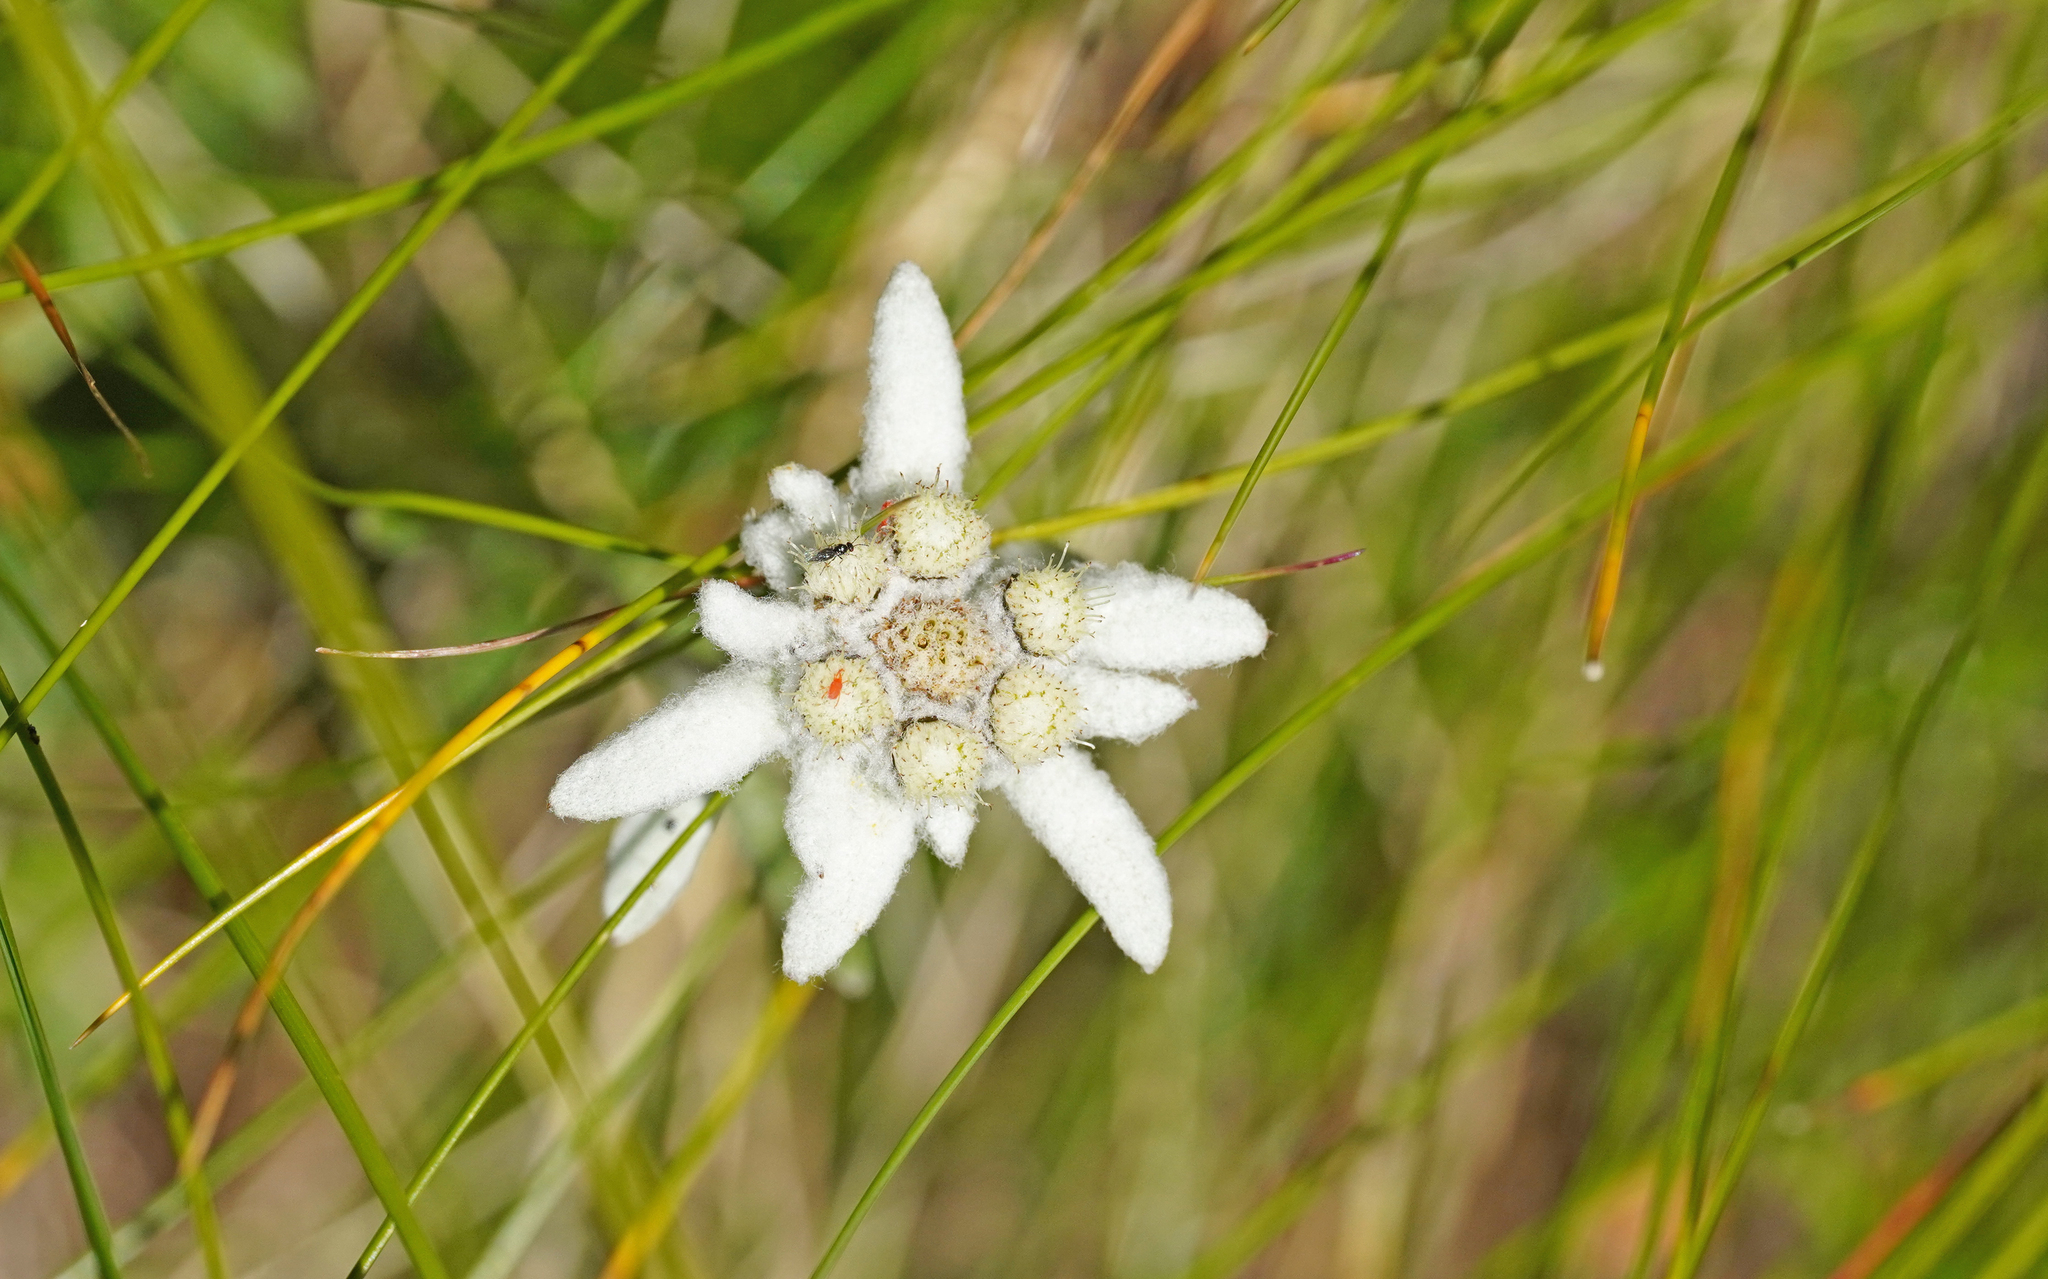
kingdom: Plantae
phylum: Tracheophyta
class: Magnoliopsida
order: Asterales
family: Asteraceae
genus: Leontopodium
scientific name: Leontopodium nivale
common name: Edelweiss
